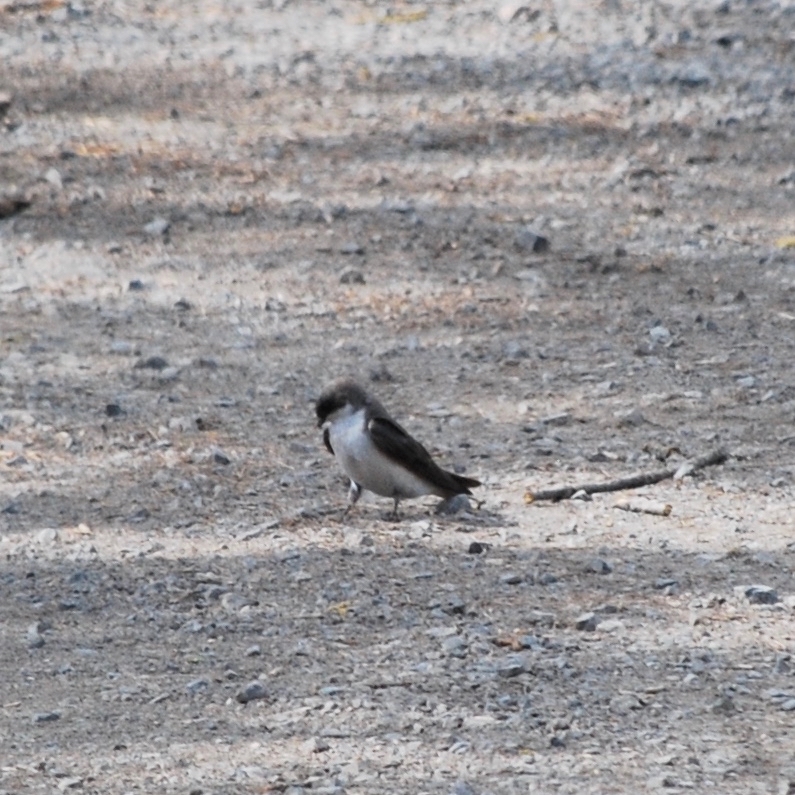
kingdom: Animalia
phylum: Chordata
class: Aves
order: Passeriformes
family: Hirundinidae
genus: Tachycineta
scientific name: Tachycineta bicolor
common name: Tree swallow
